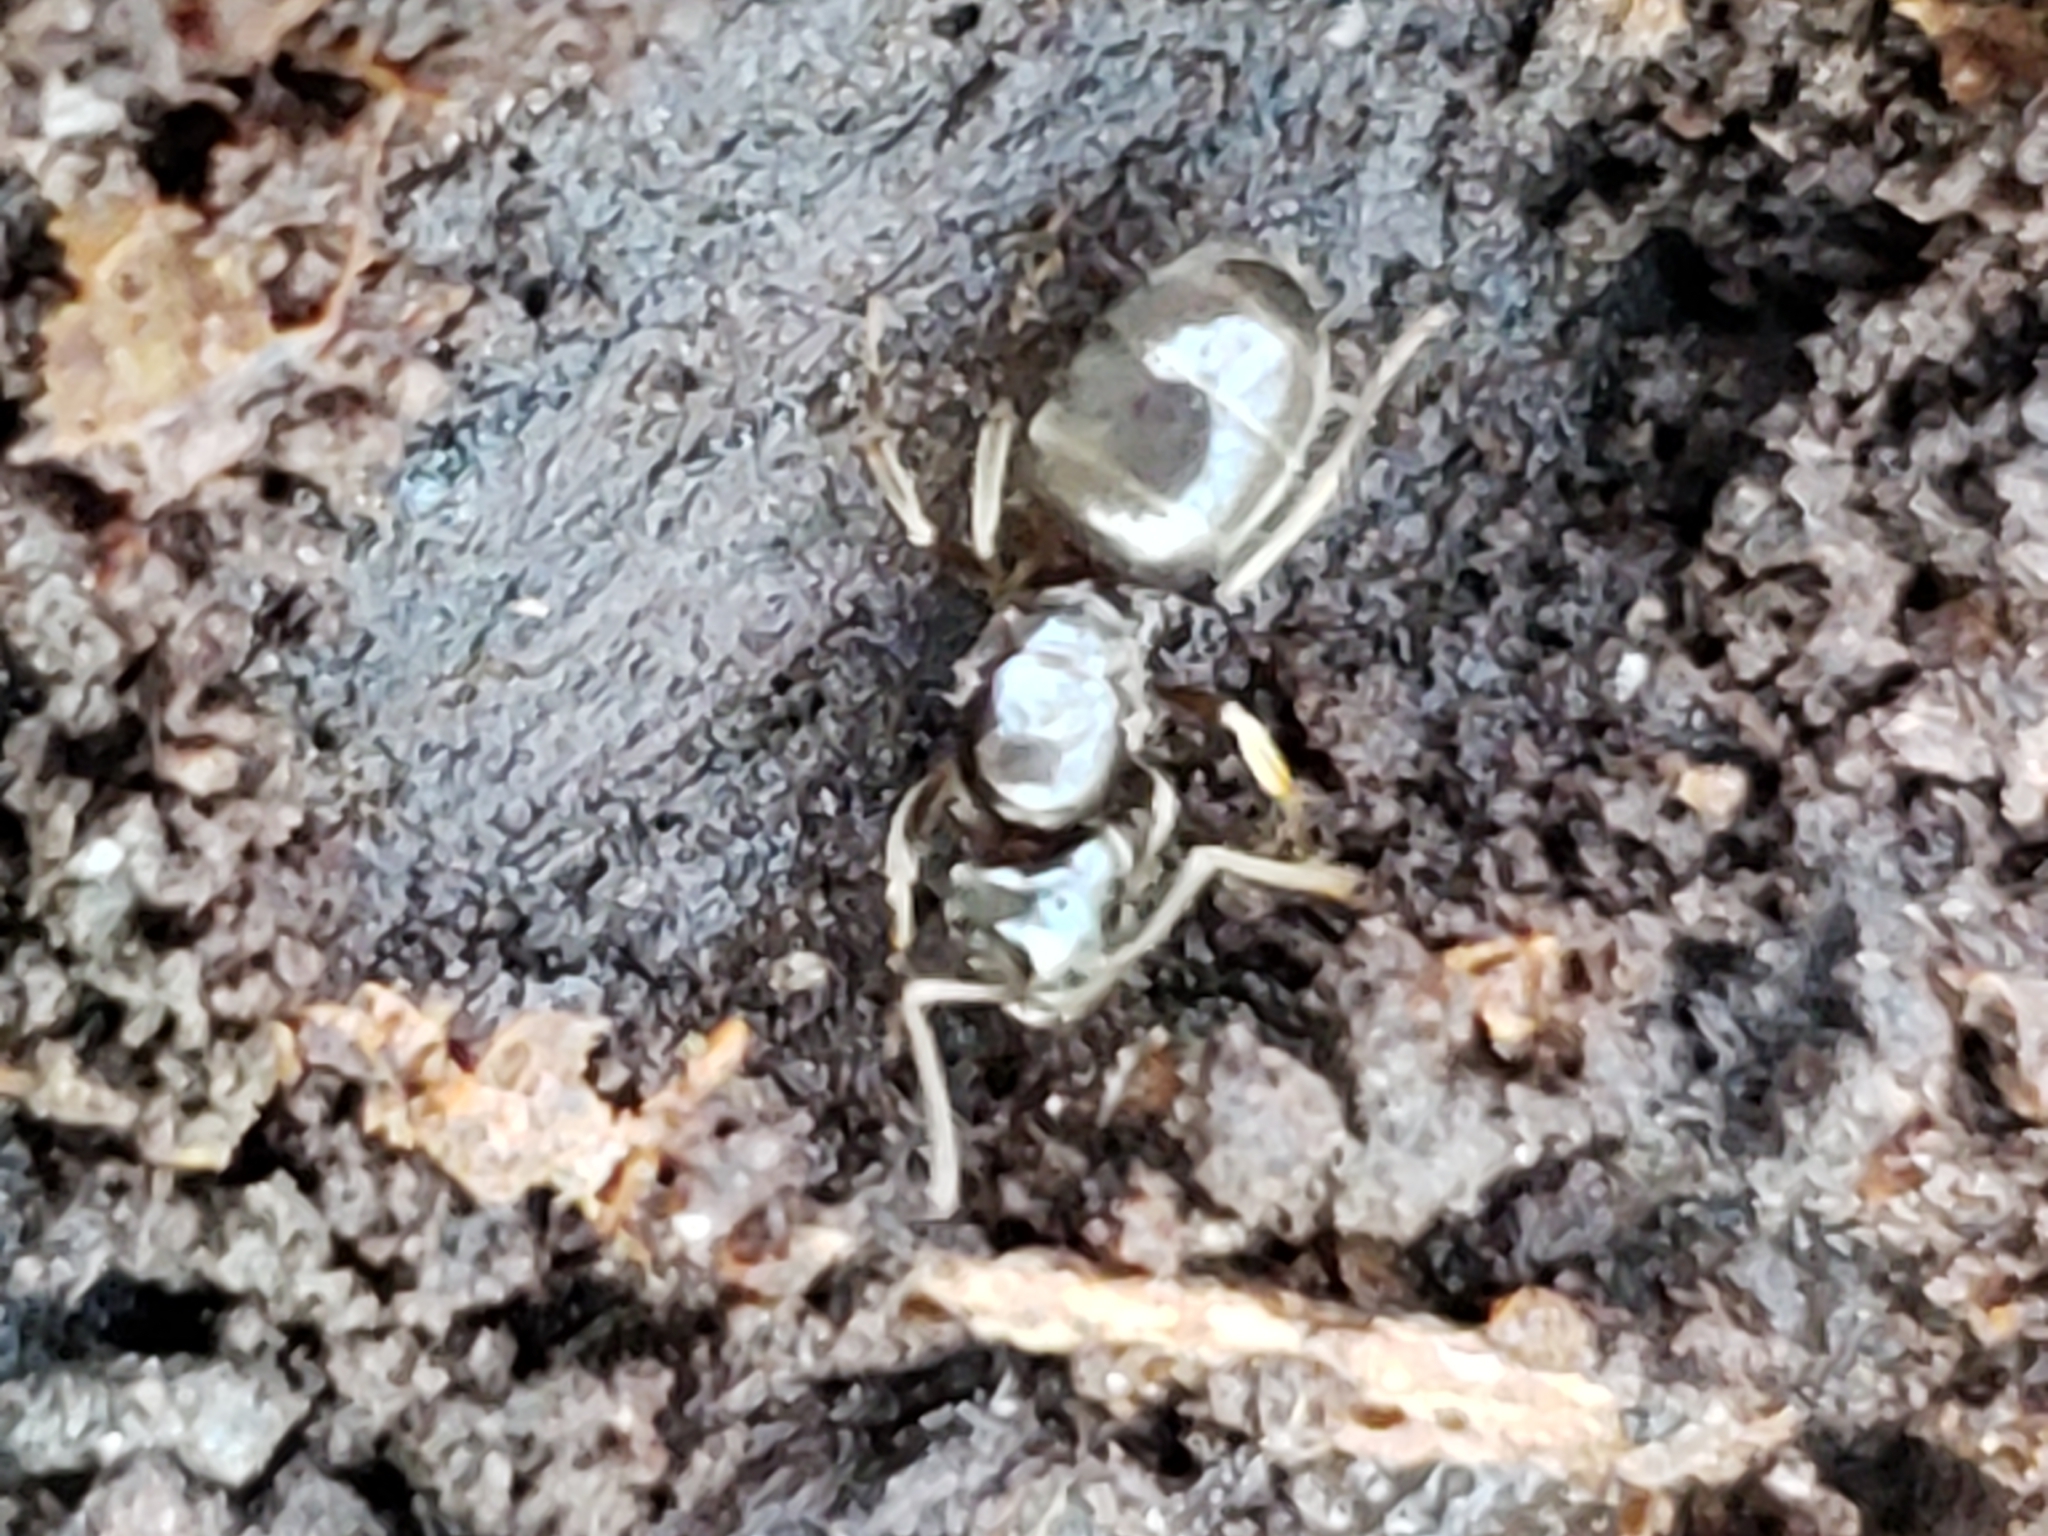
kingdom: Animalia
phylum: Arthropoda
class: Insecta
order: Hymenoptera
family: Formicidae
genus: Lasius
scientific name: Lasius aphidicola
